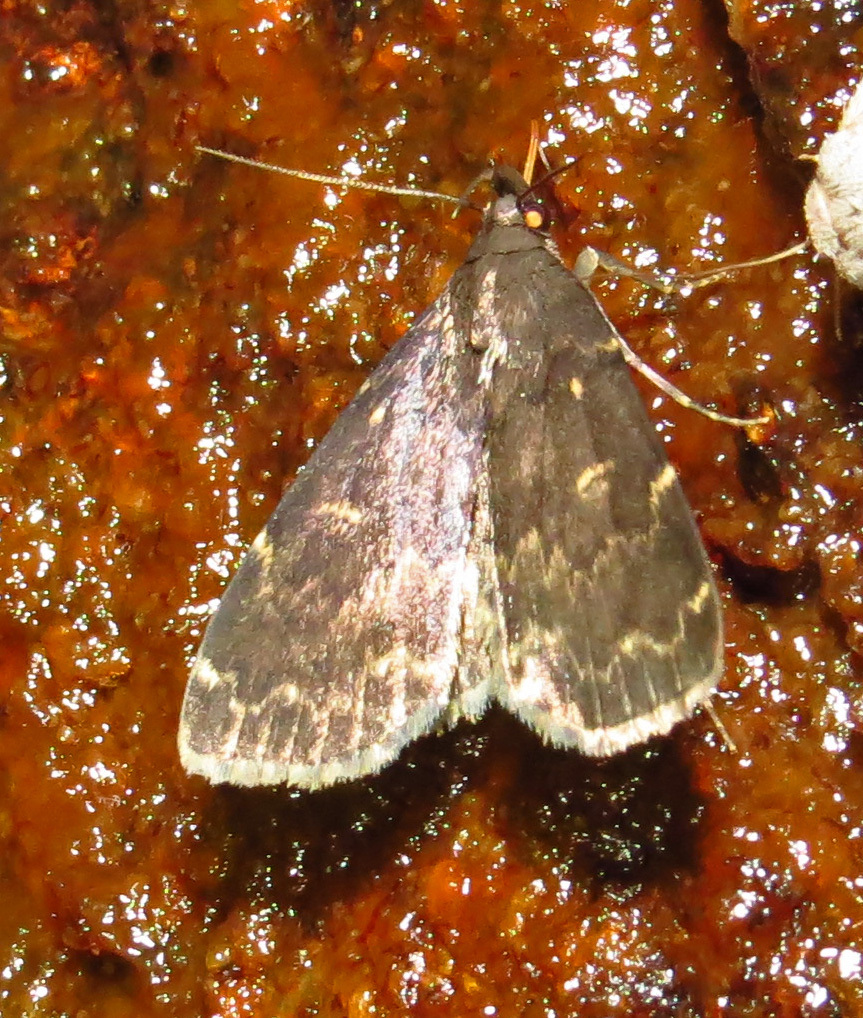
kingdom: Animalia
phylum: Arthropoda
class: Insecta
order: Lepidoptera
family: Erebidae
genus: Idia
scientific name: Idia lubricalis
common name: Twin-striped tabby
